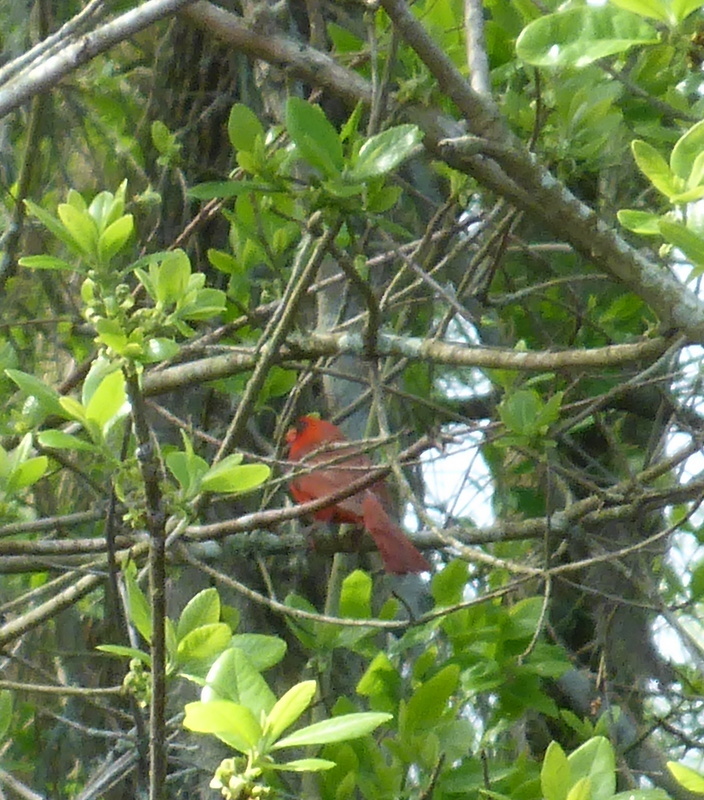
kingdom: Animalia
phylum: Chordata
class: Aves
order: Passeriformes
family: Cardinalidae
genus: Cardinalis
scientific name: Cardinalis cardinalis
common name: Northern cardinal
